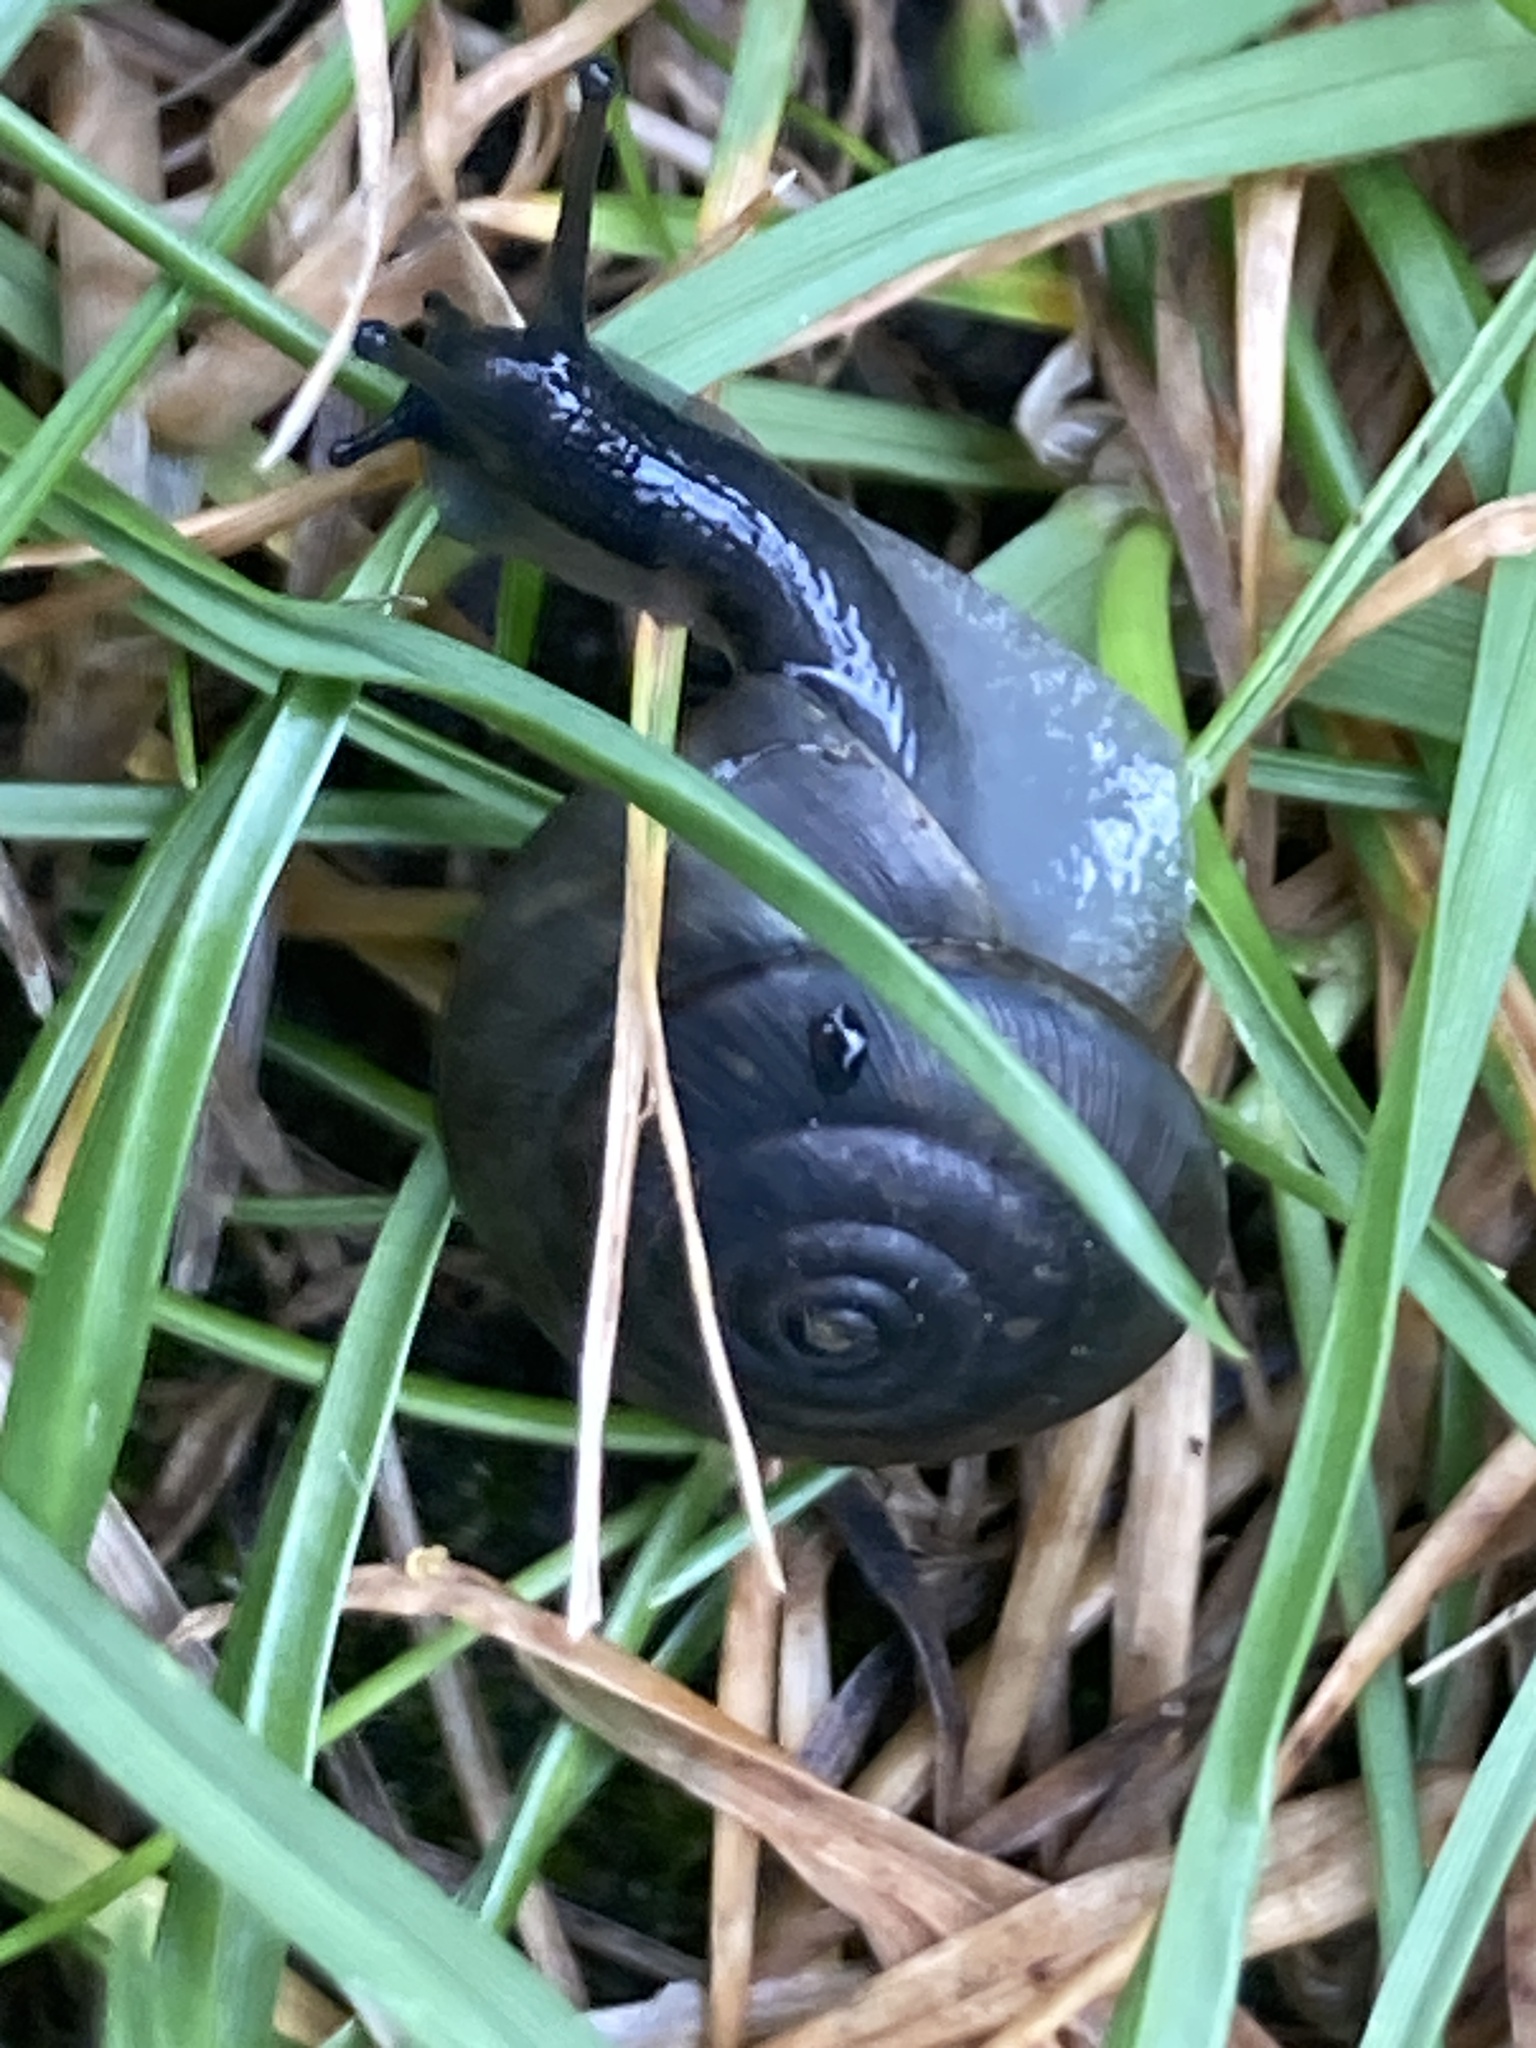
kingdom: Animalia
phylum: Mollusca
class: Gastropoda
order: Stylommatophora
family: Hygromiidae
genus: Trochulus
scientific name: Trochulus striolatus
